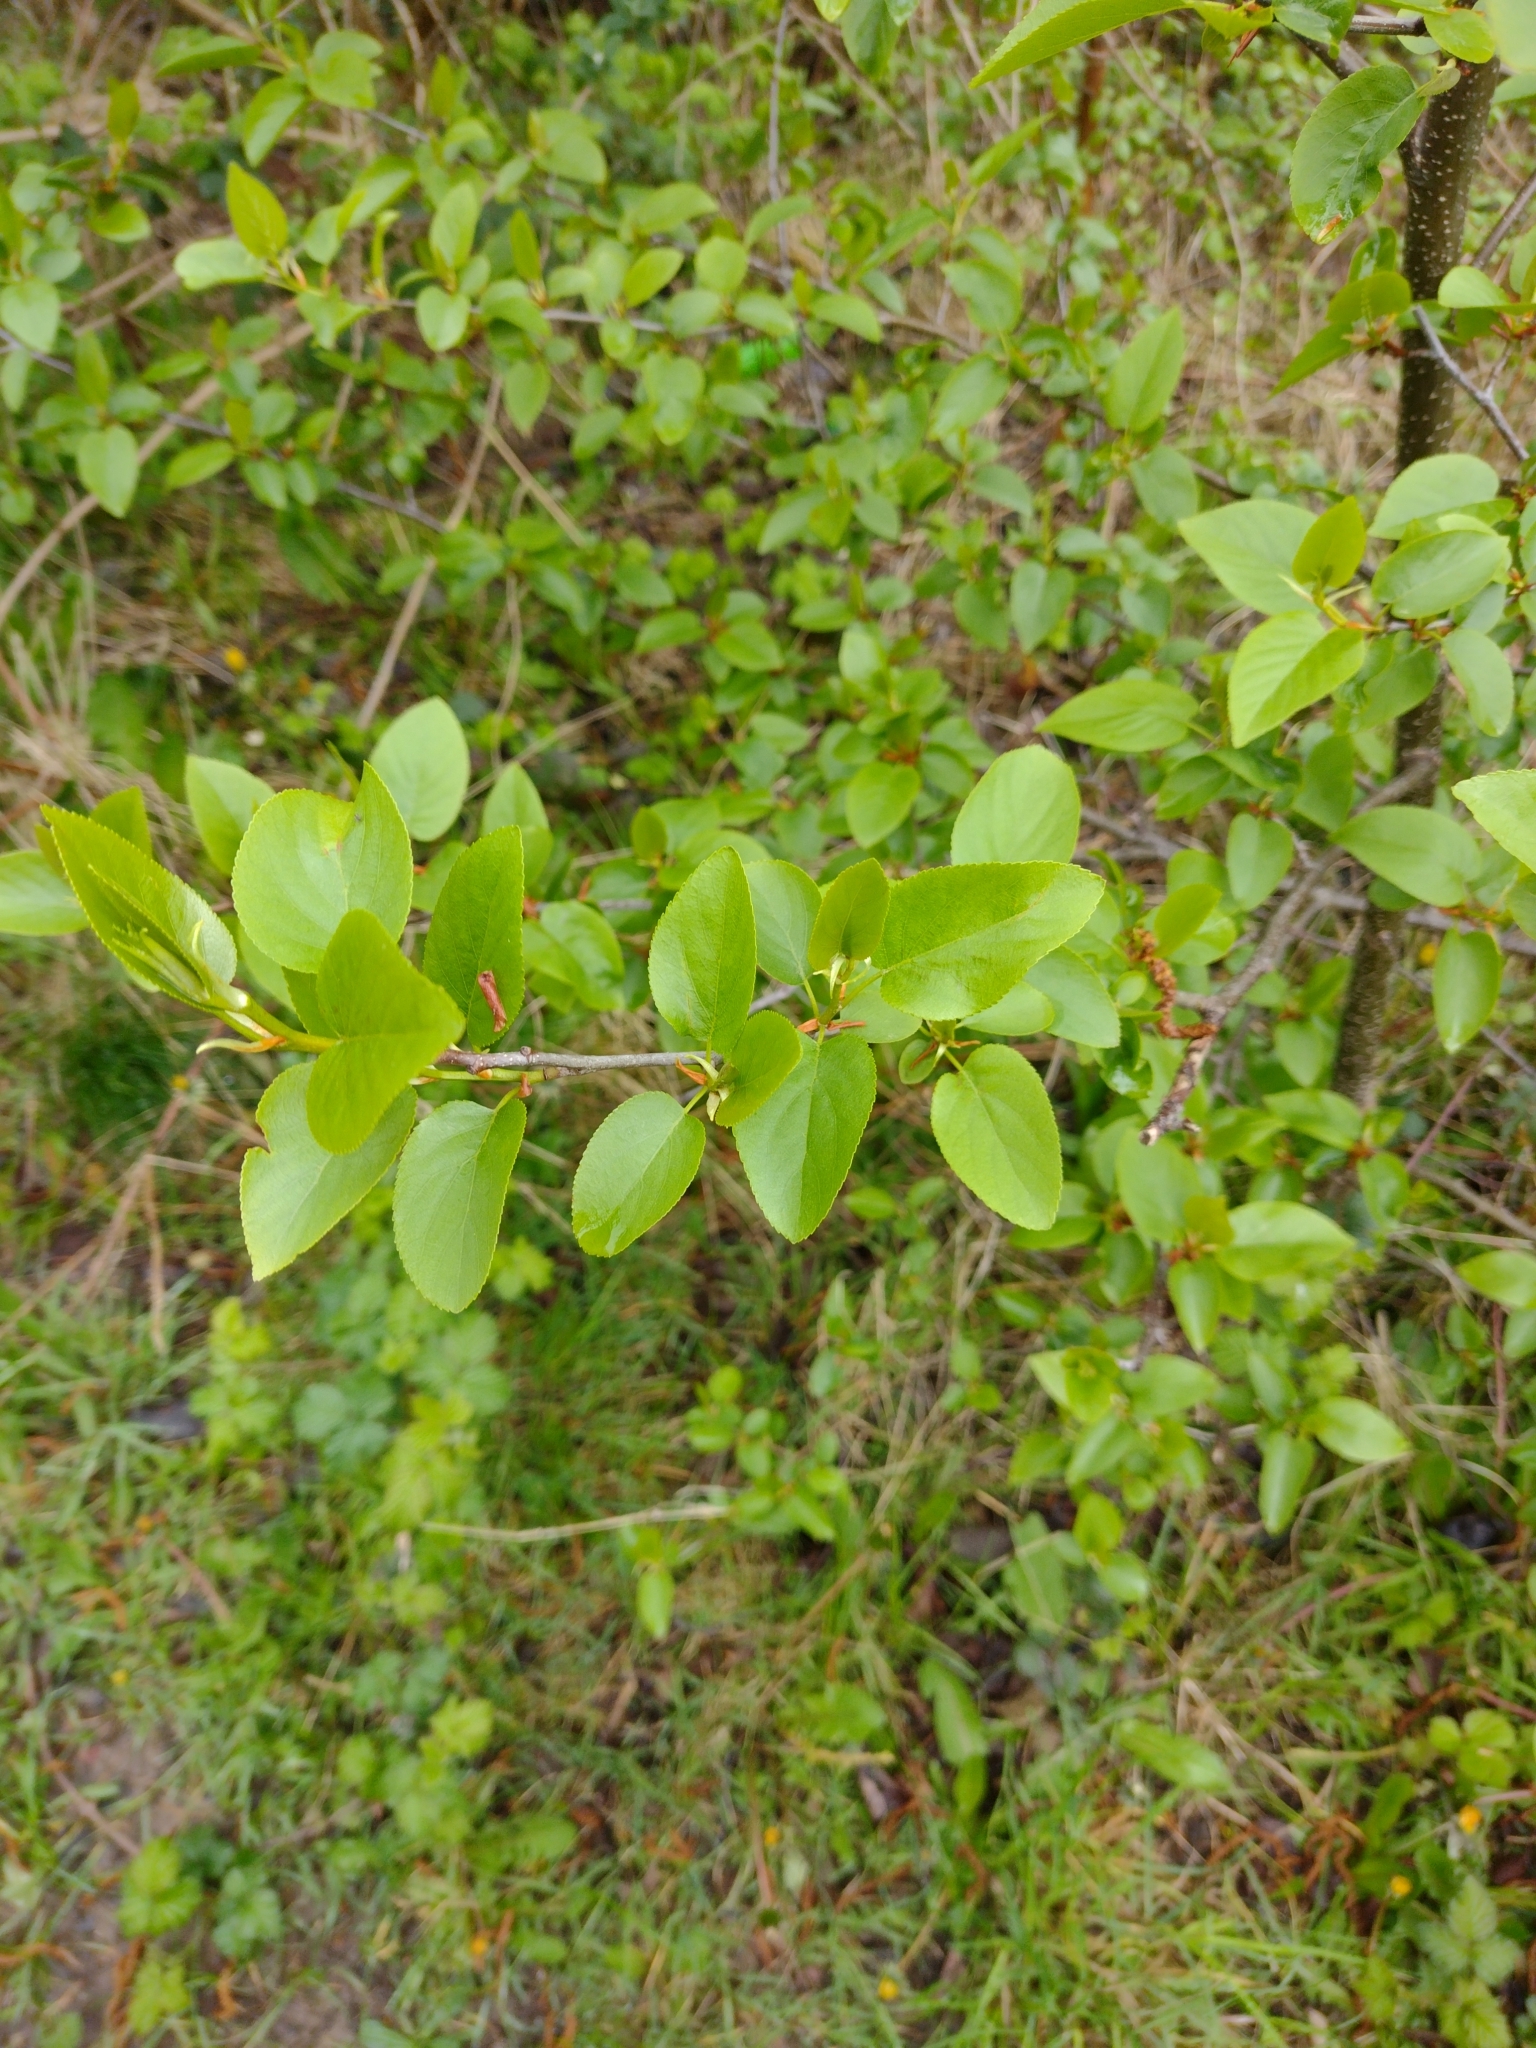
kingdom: Plantae
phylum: Tracheophyta
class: Magnoliopsida
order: Fagales
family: Betulaceae
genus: Alnus
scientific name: Alnus cordata
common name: Italian alder
